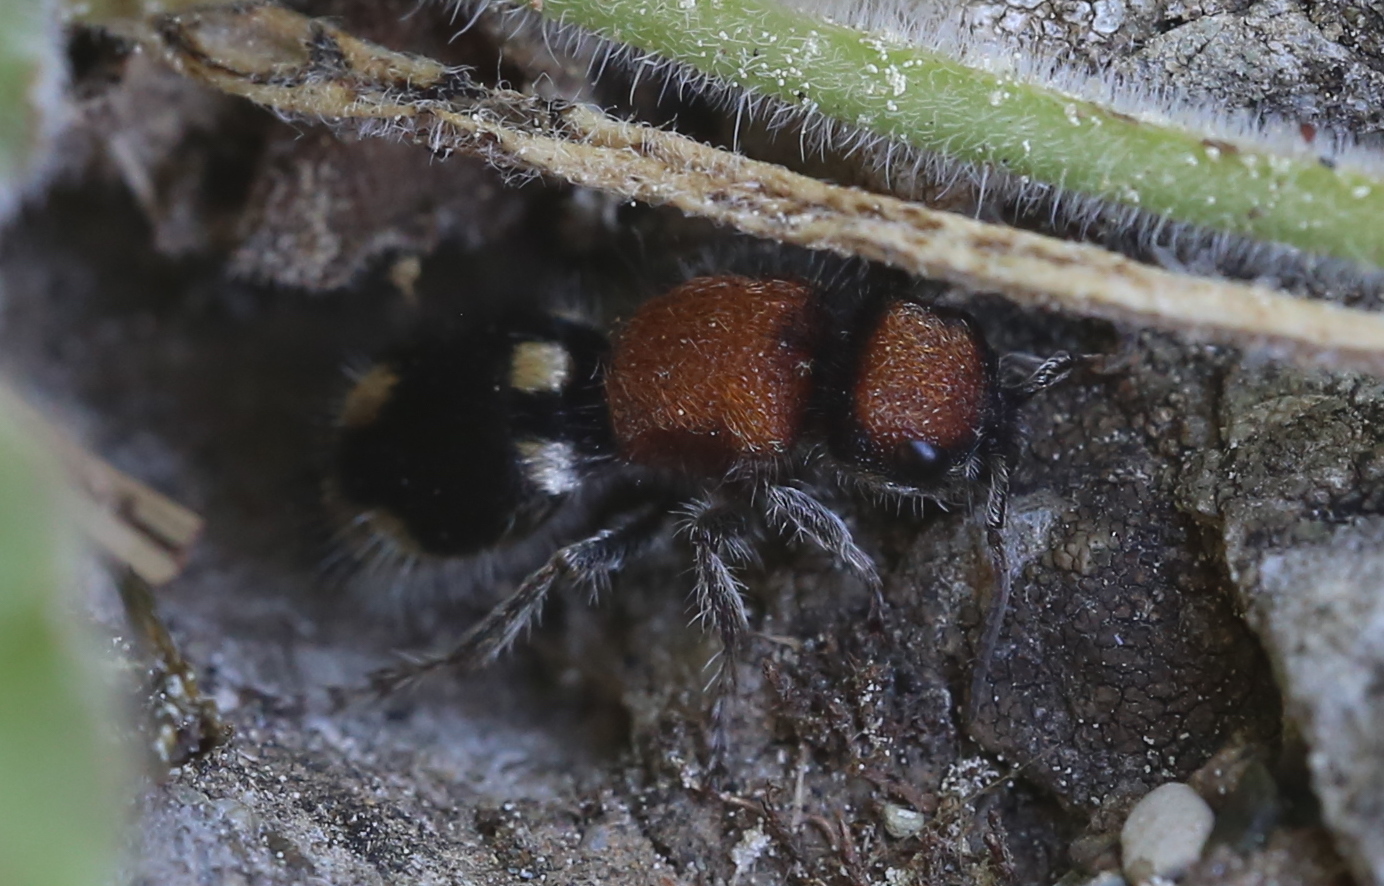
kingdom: Animalia
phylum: Arthropoda
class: Insecta
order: Hymenoptera
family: Mutillidae
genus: Ronisia
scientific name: Ronisia brutia
